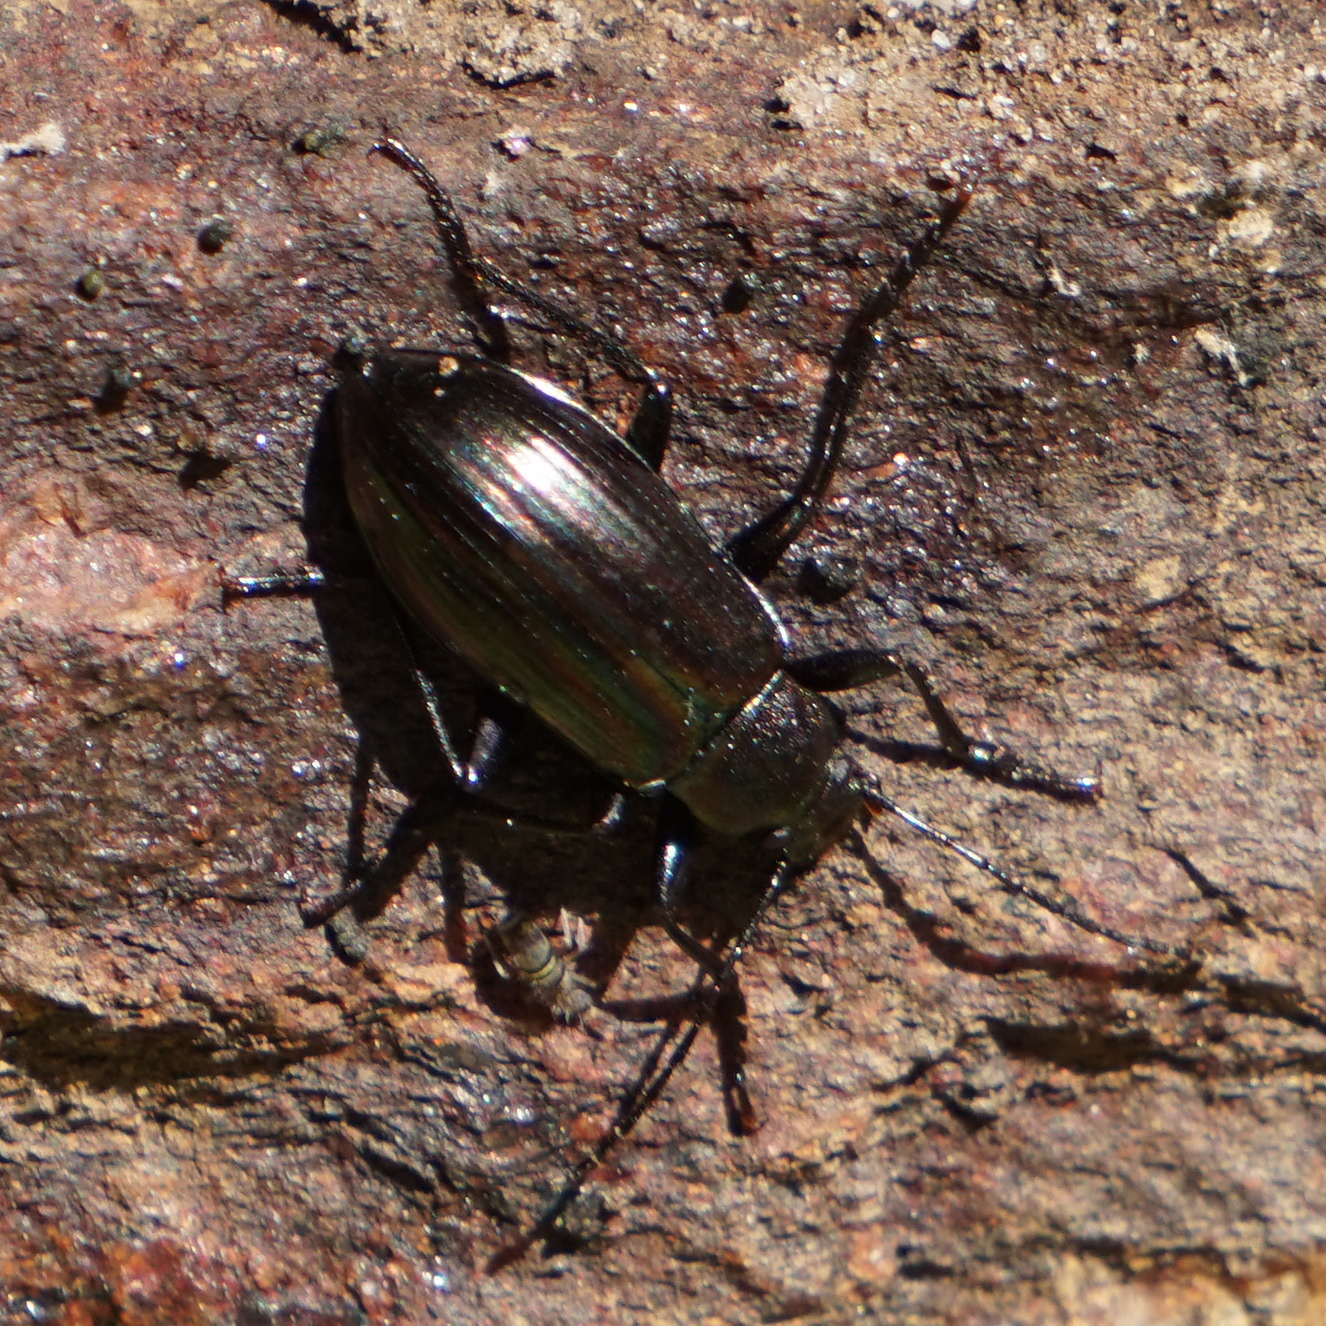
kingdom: Animalia
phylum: Arthropoda
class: Insecta
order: Coleoptera
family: Tenebrionidae
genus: Tarpela
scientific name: Tarpela micans
